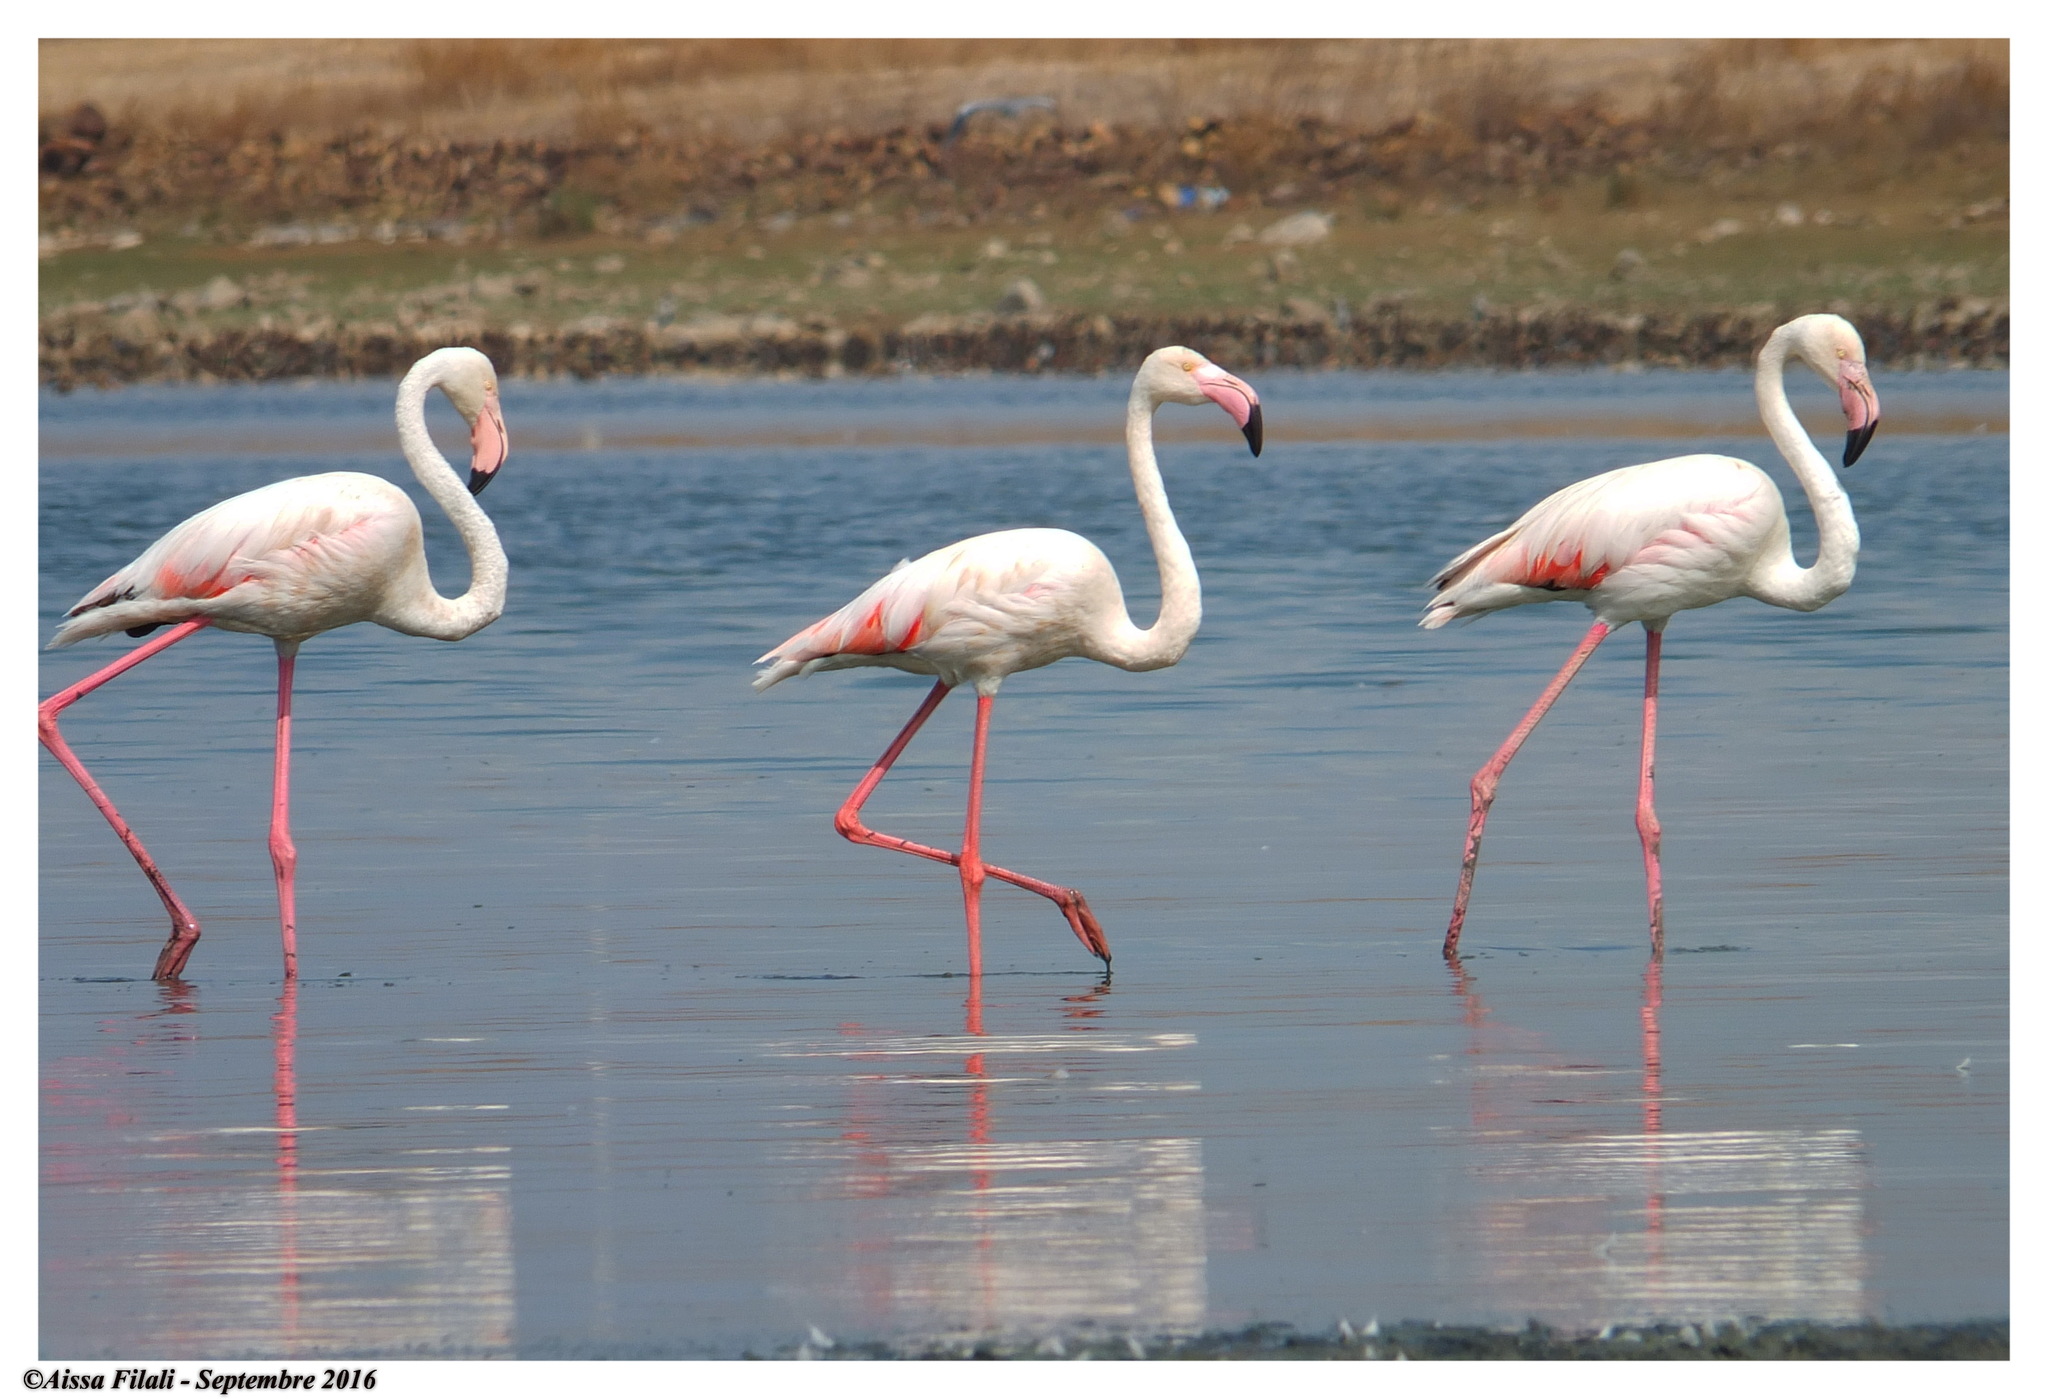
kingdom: Animalia
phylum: Chordata
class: Aves
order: Phoenicopteriformes
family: Phoenicopteridae
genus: Phoenicopterus
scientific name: Phoenicopterus roseus
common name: Greater flamingo
